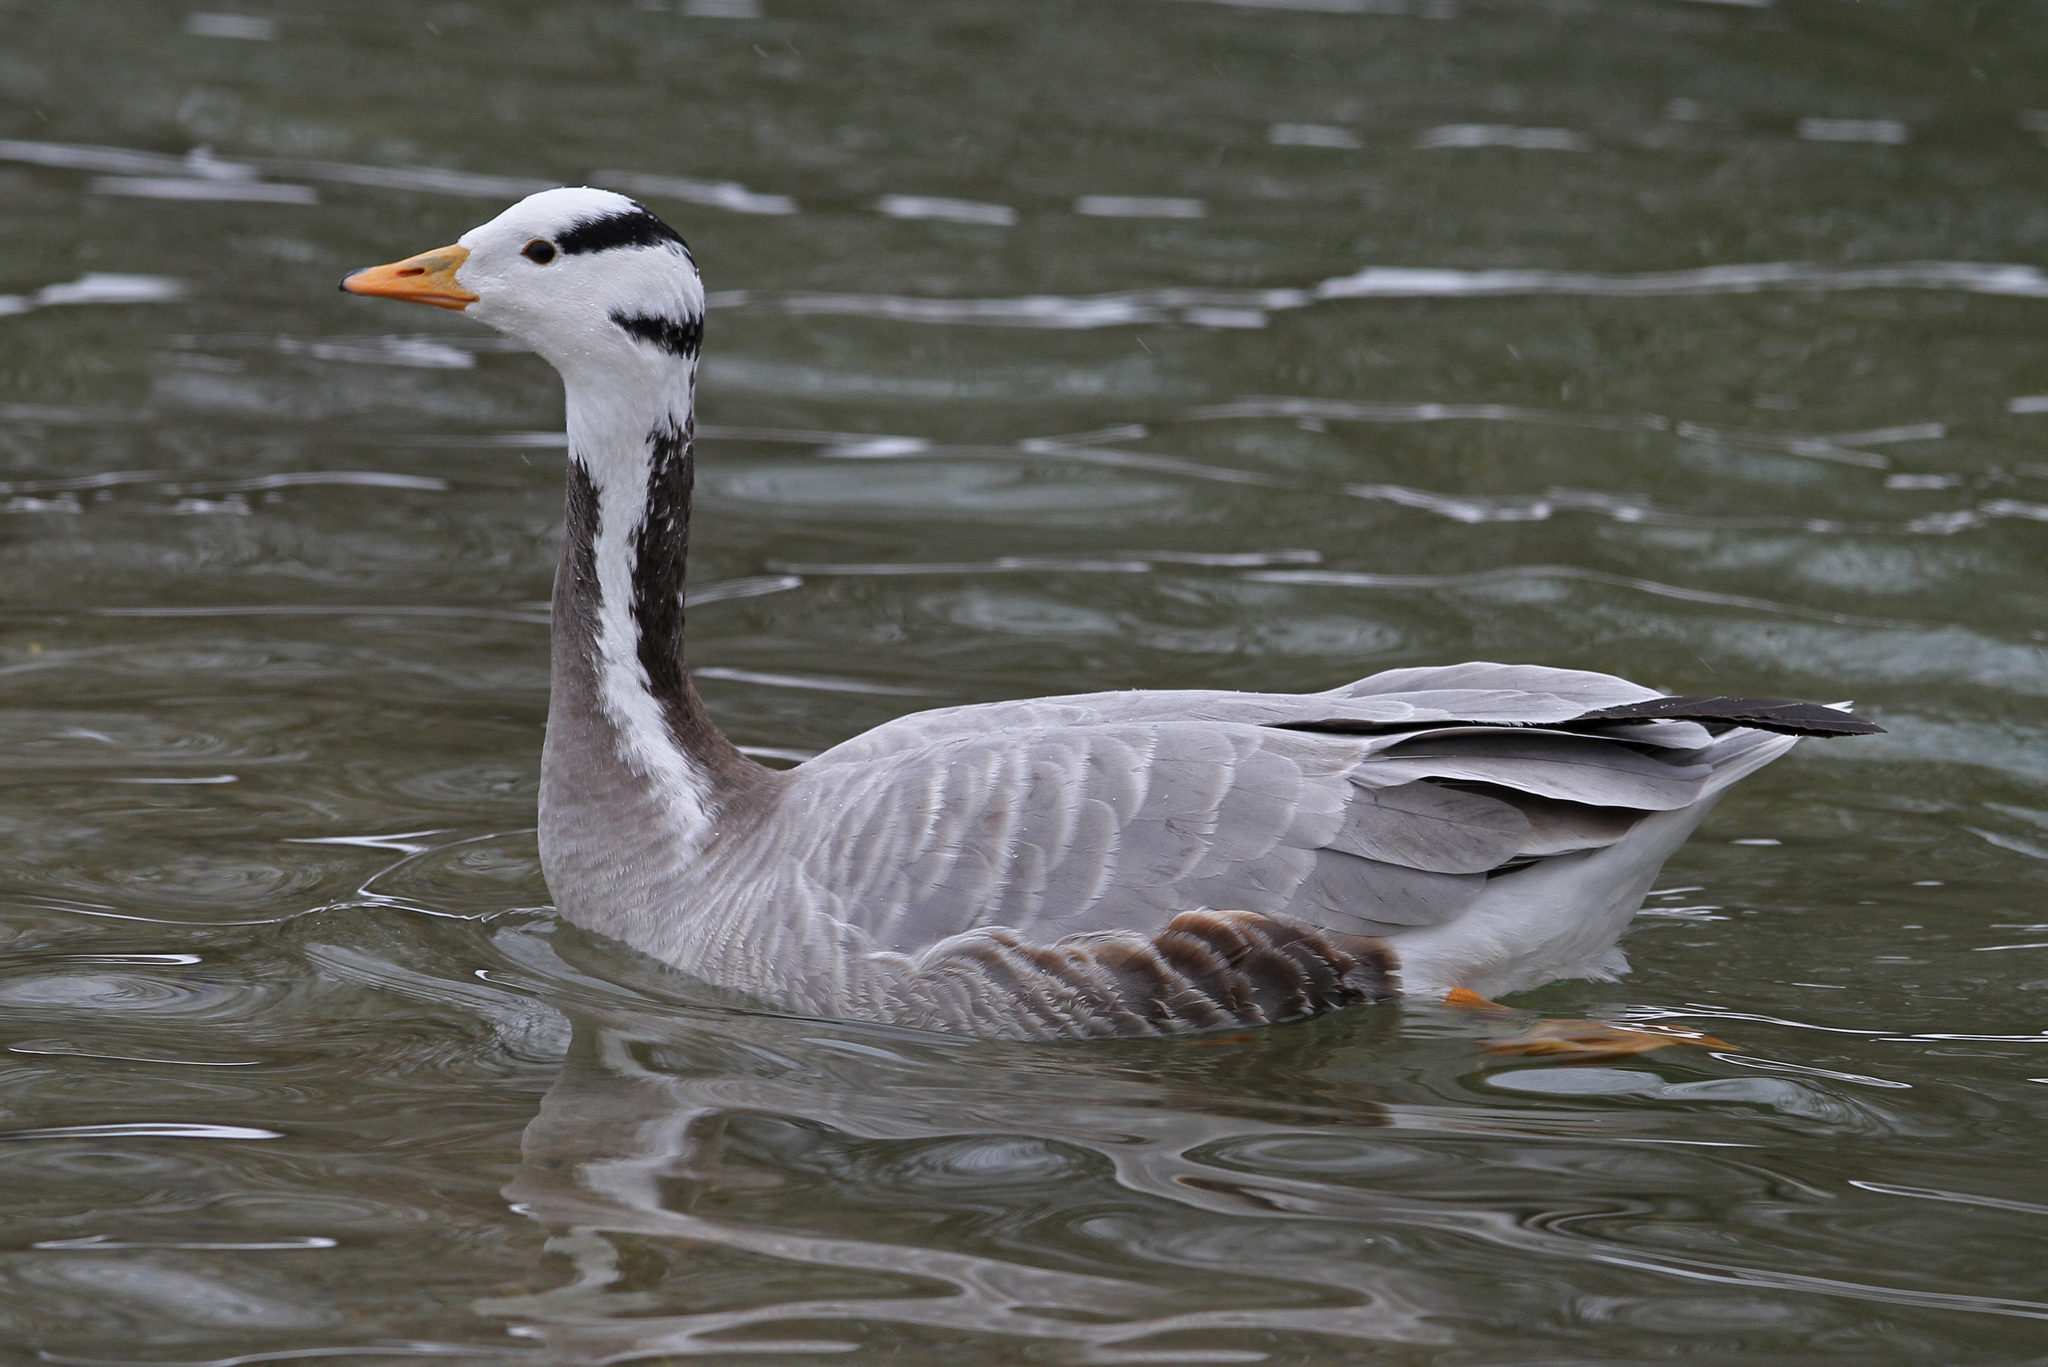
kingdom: Animalia
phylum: Chordata
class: Aves
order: Anseriformes
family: Anatidae
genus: Anser
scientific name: Anser indicus
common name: Bar-headed goose
